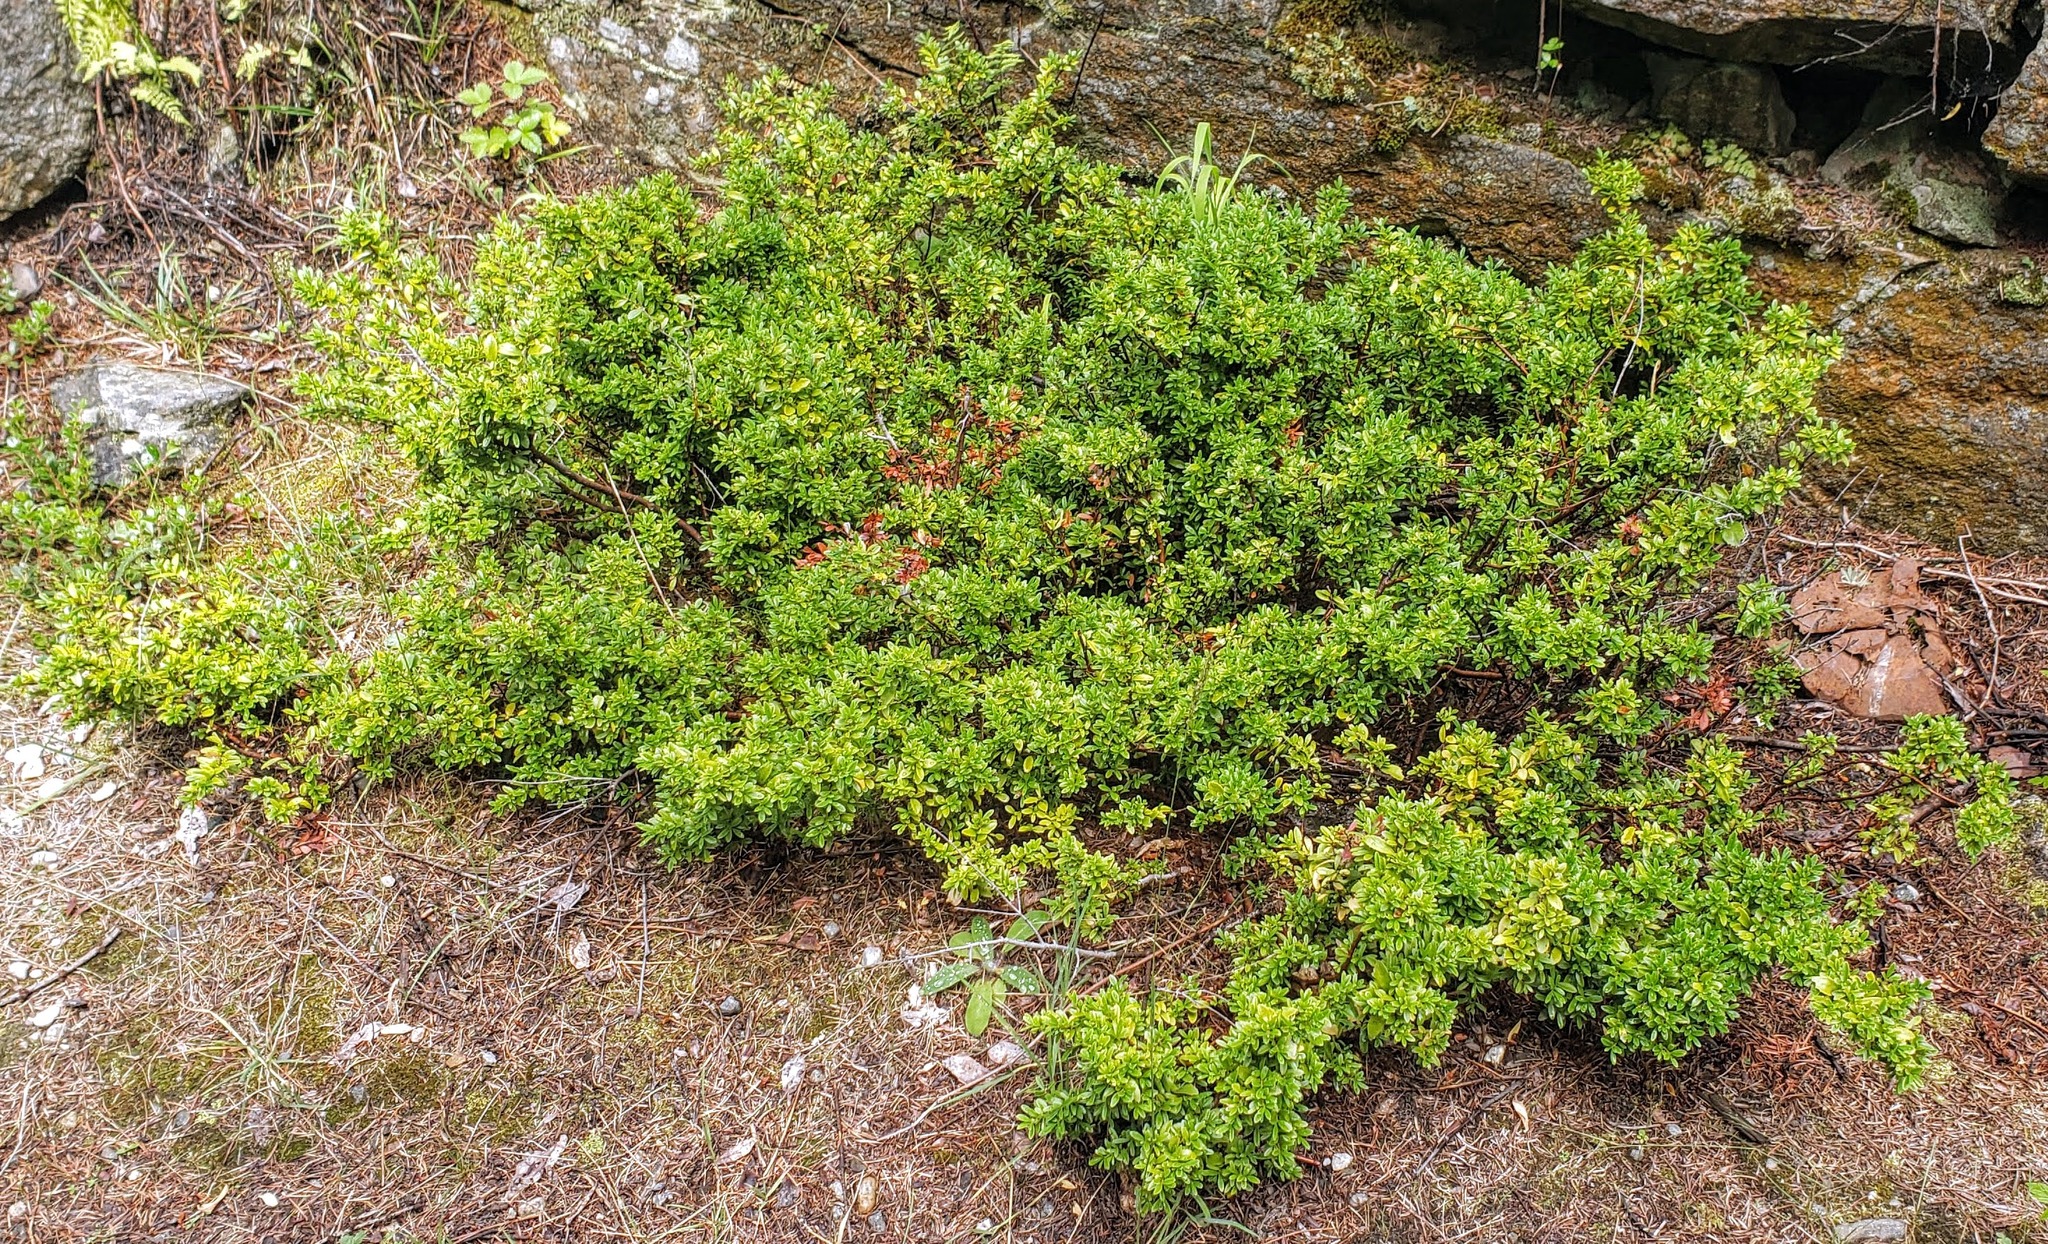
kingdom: Plantae
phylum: Tracheophyta
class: Magnoliopsida
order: Celastrales
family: Celastraceae
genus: Paxistima
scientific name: Paxistima myrsinites
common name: Mountain-lover
